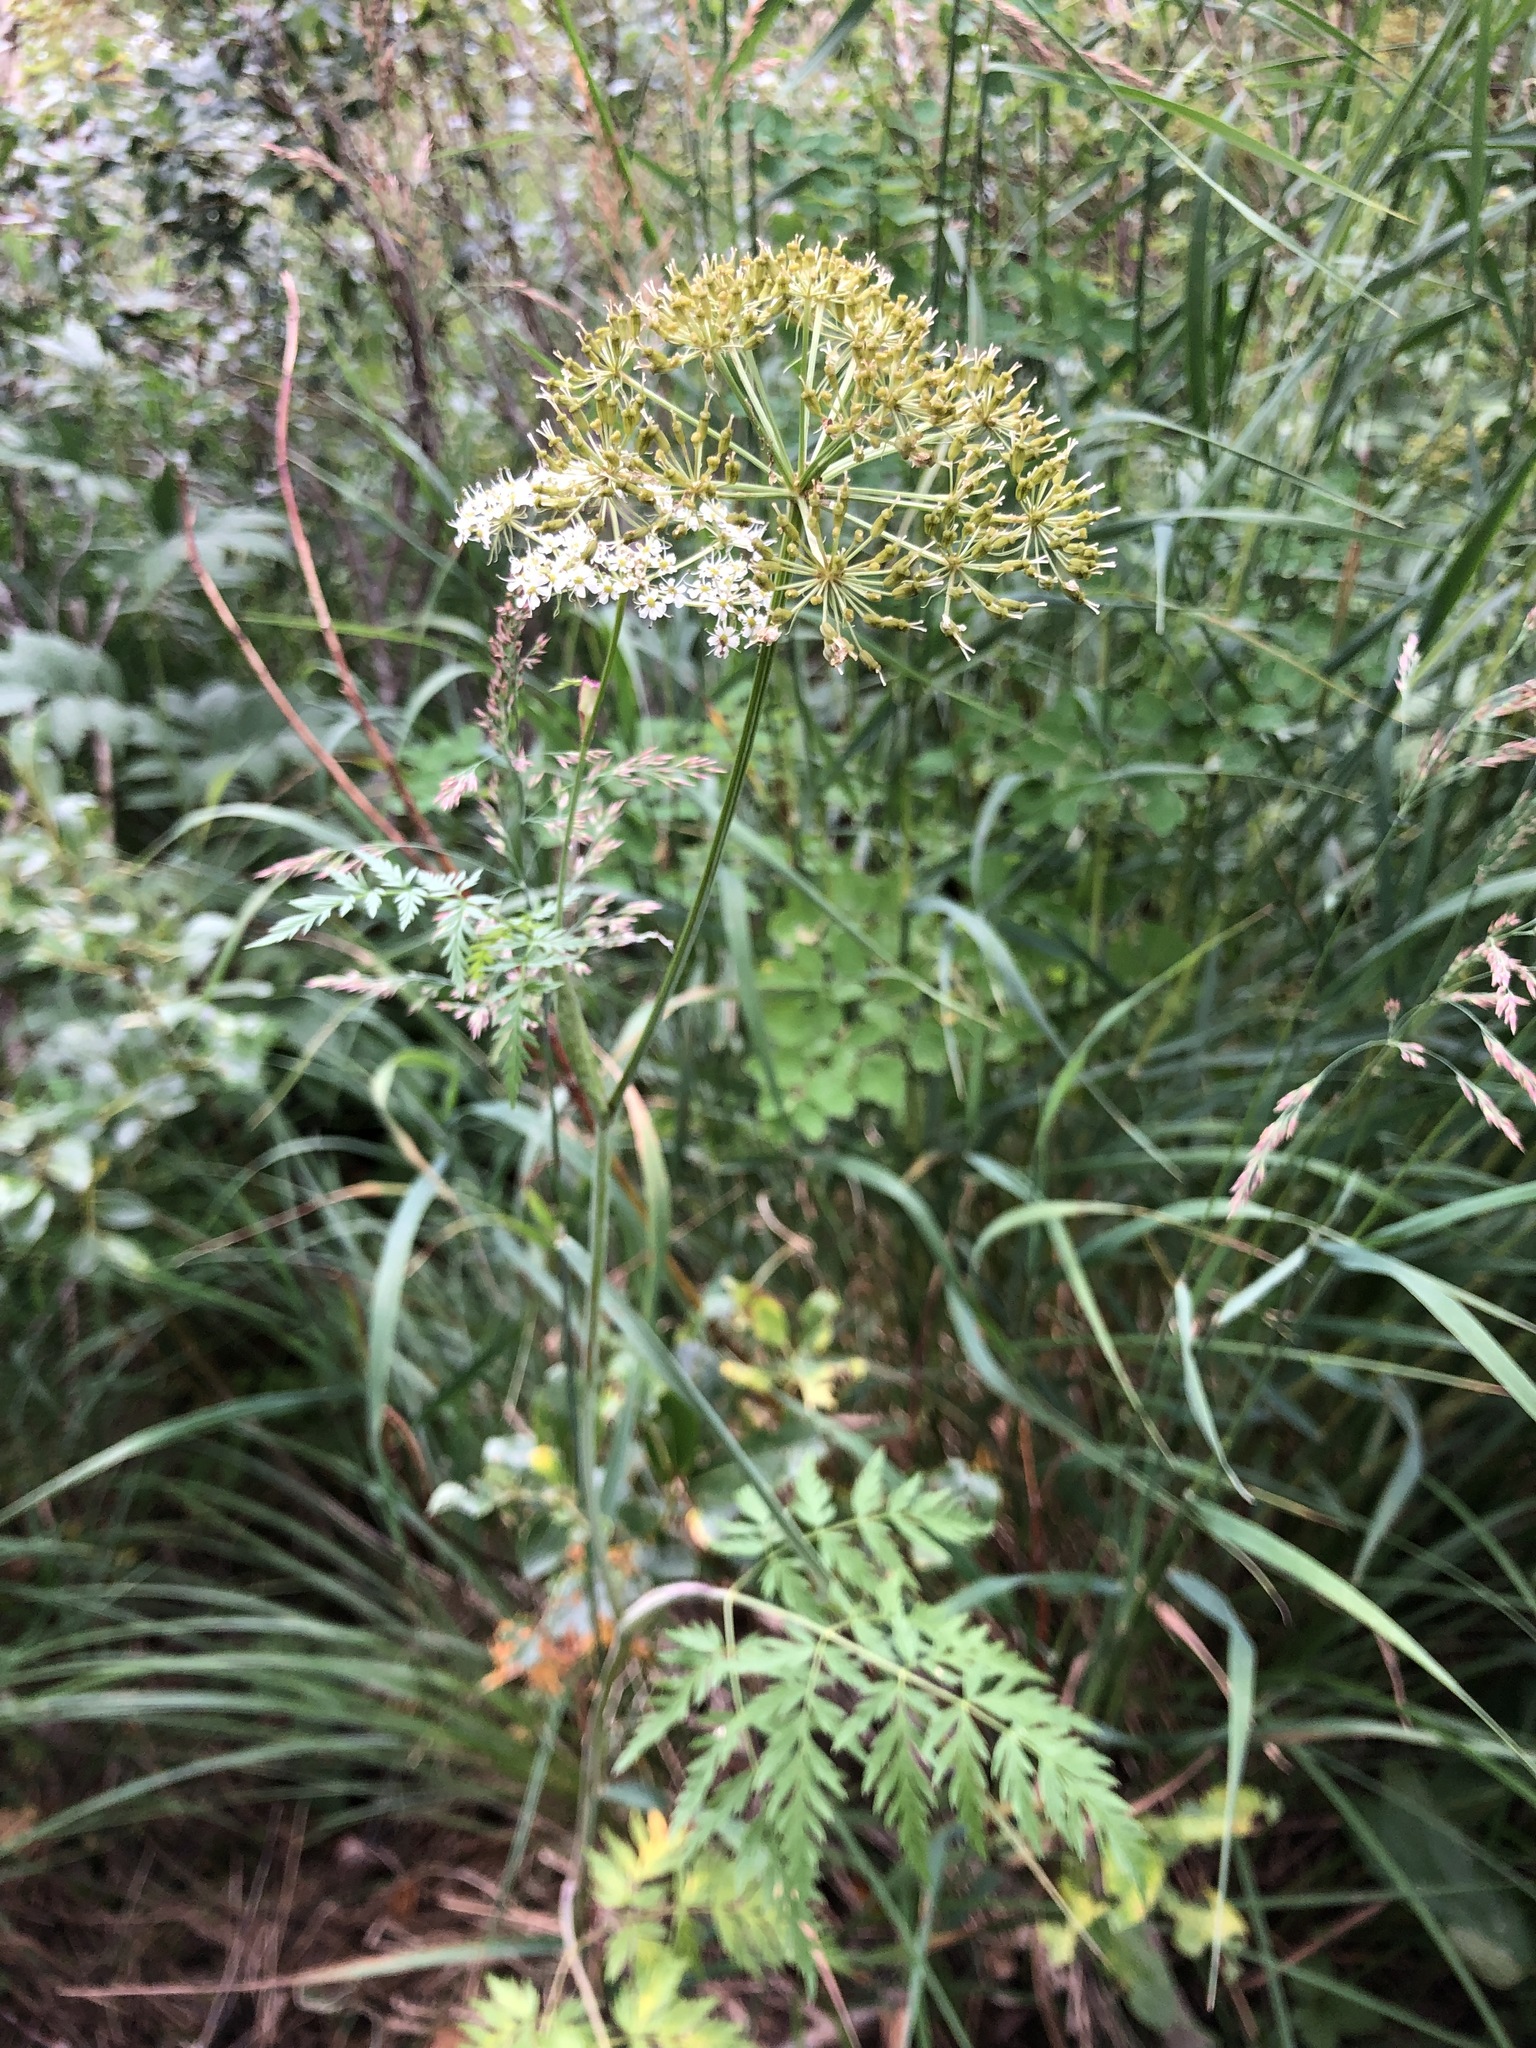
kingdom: Plantae
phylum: Tracheophyta
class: Magnoliopsida
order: Apiales
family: Apiaceae
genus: Conioselinum
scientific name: Conioselinum tataricum
